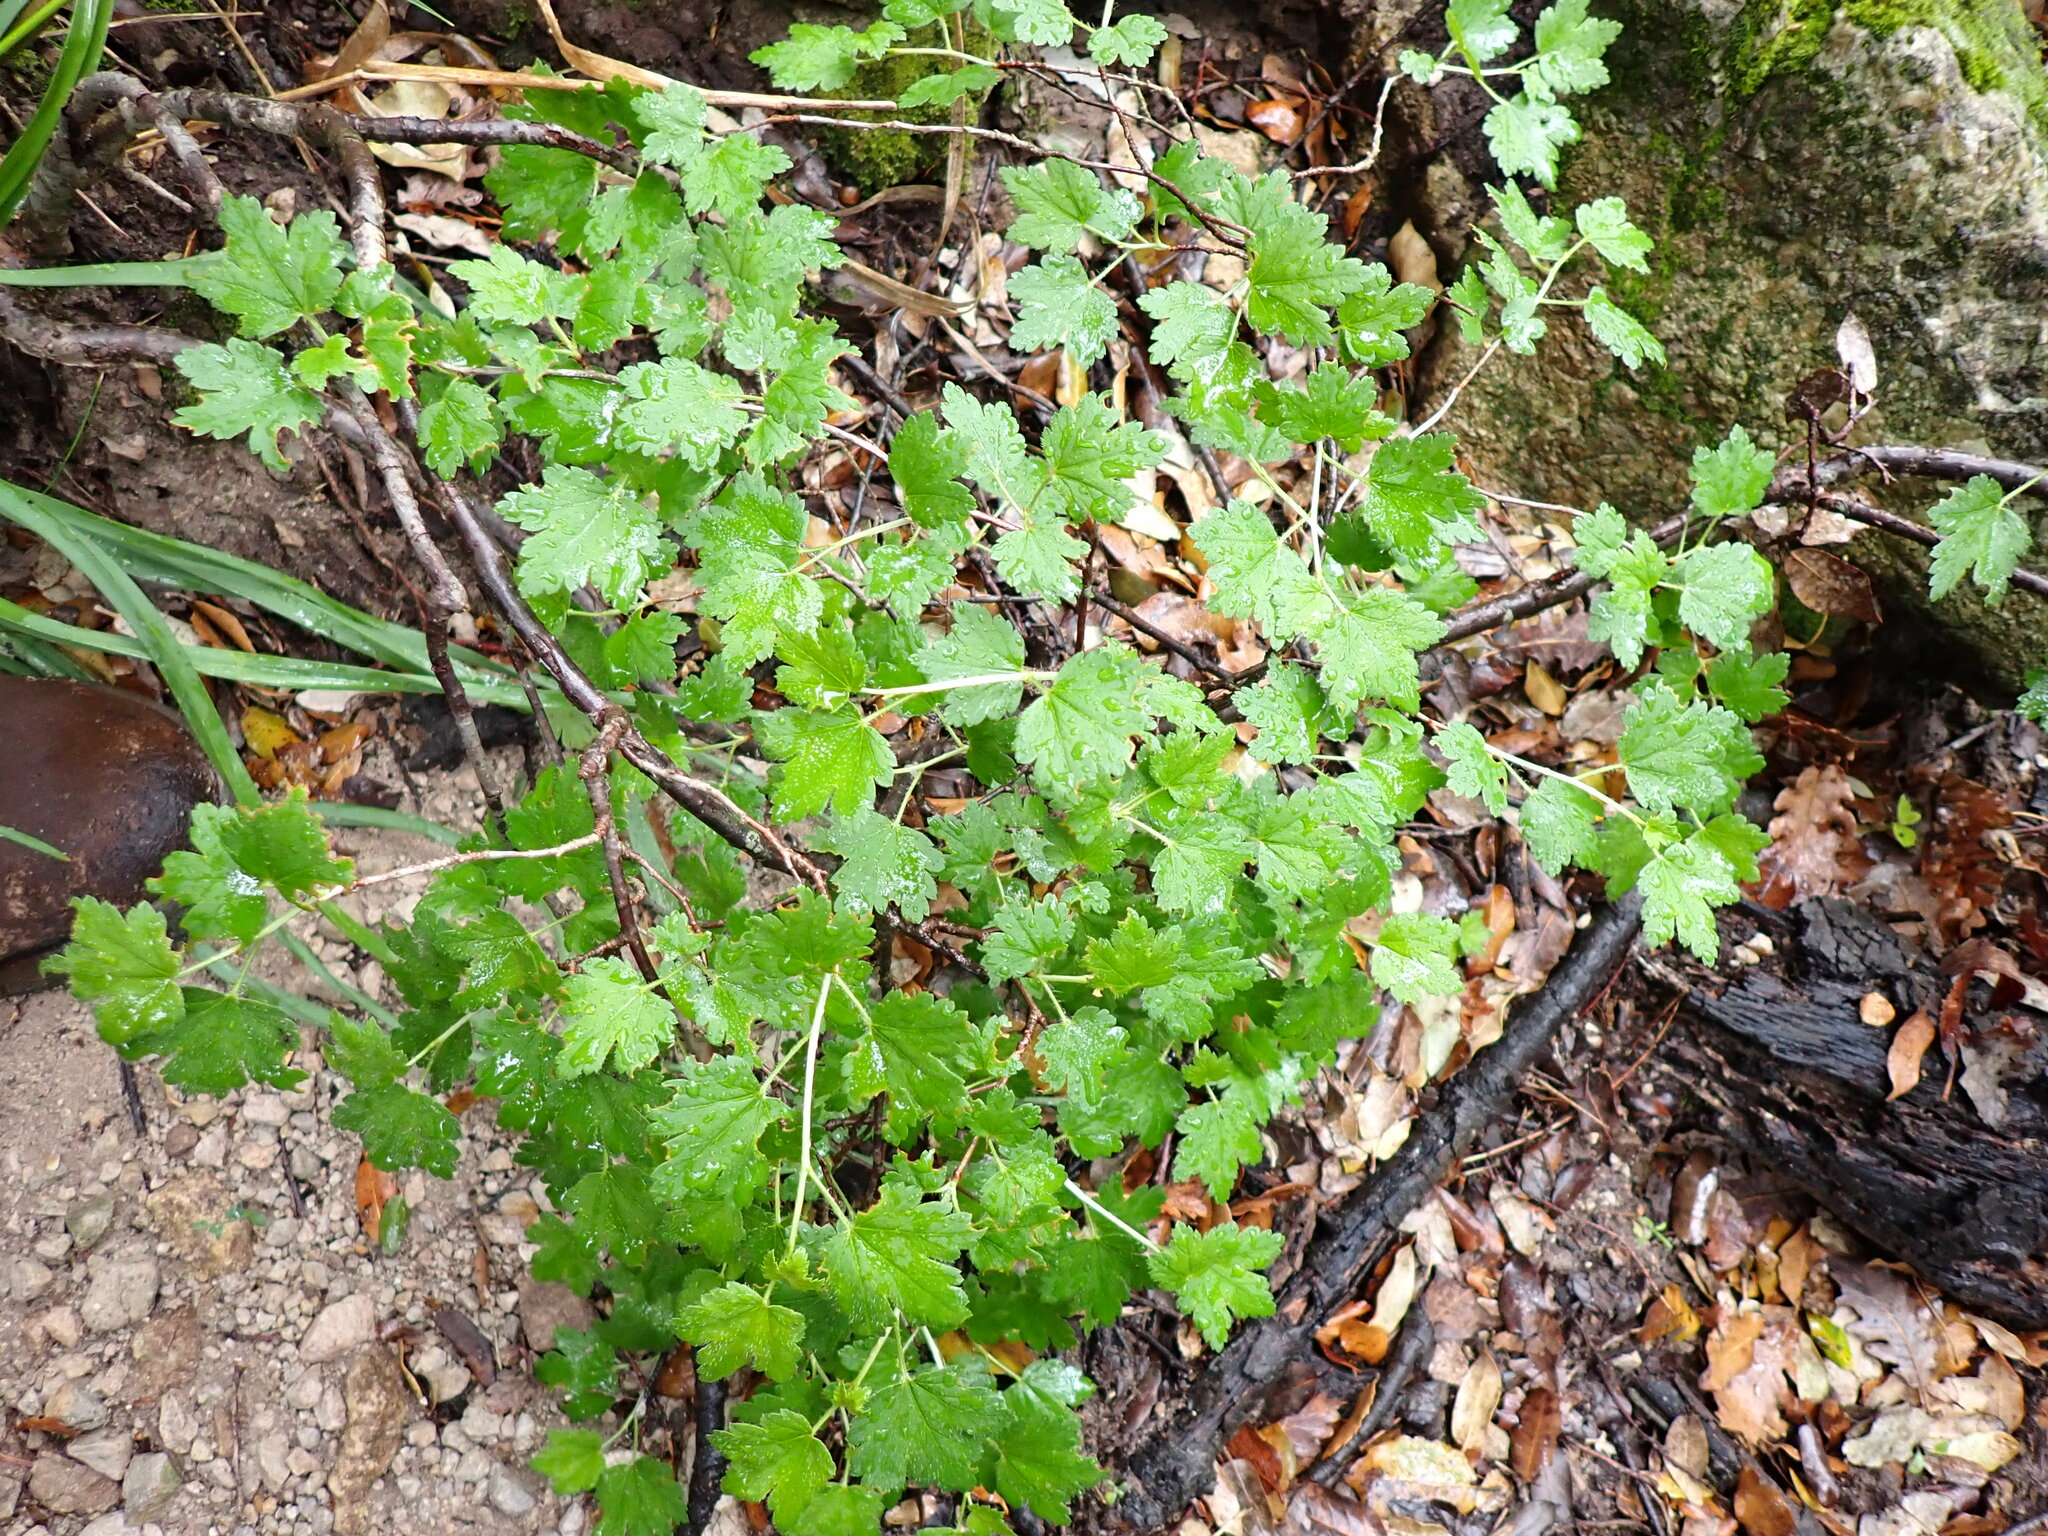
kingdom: Plantae
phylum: Tracheophyta
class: Magnoliopsida
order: Saxifragales
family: Grossulariaceae
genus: Ribes
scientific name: Ribes alpinum
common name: Alpine currant
